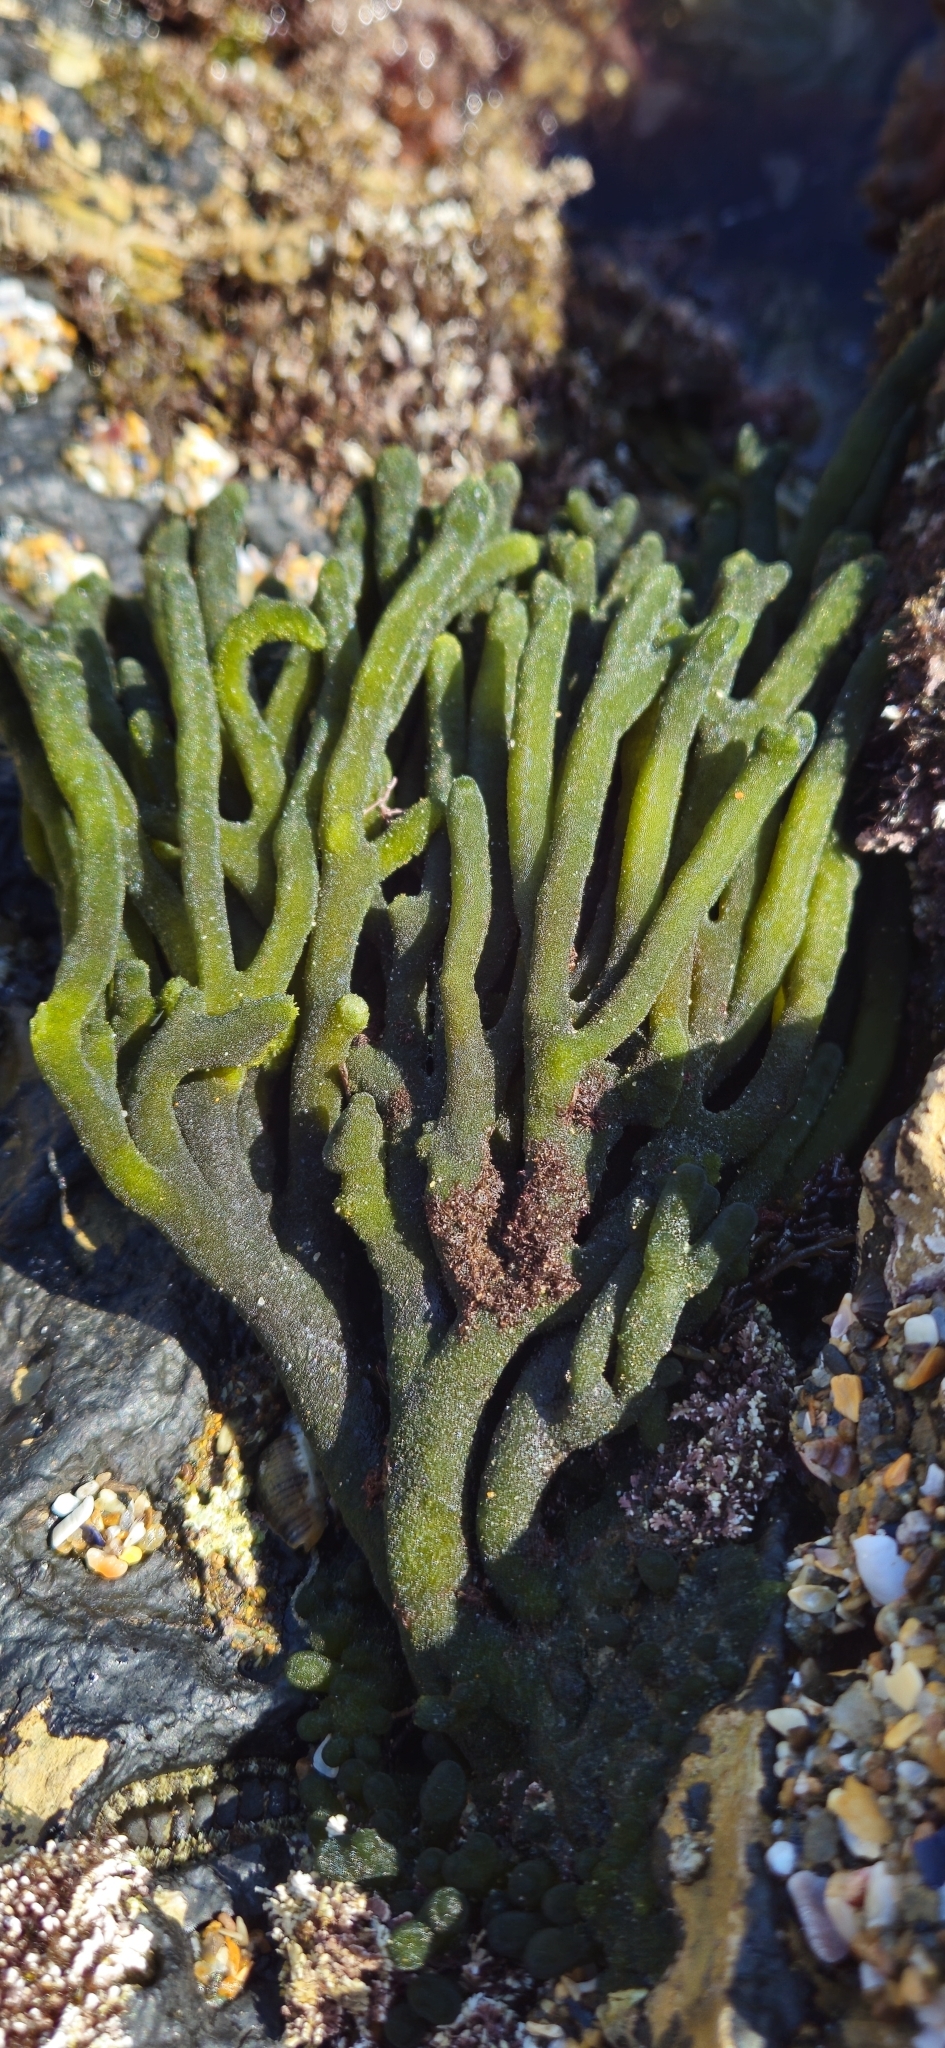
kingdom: Plantae
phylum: Chlorophyta
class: Ulvophyceae
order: Bryopsidales
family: Codiaceae
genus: Codium
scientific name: Codium fragile
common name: Dead man's fingers
